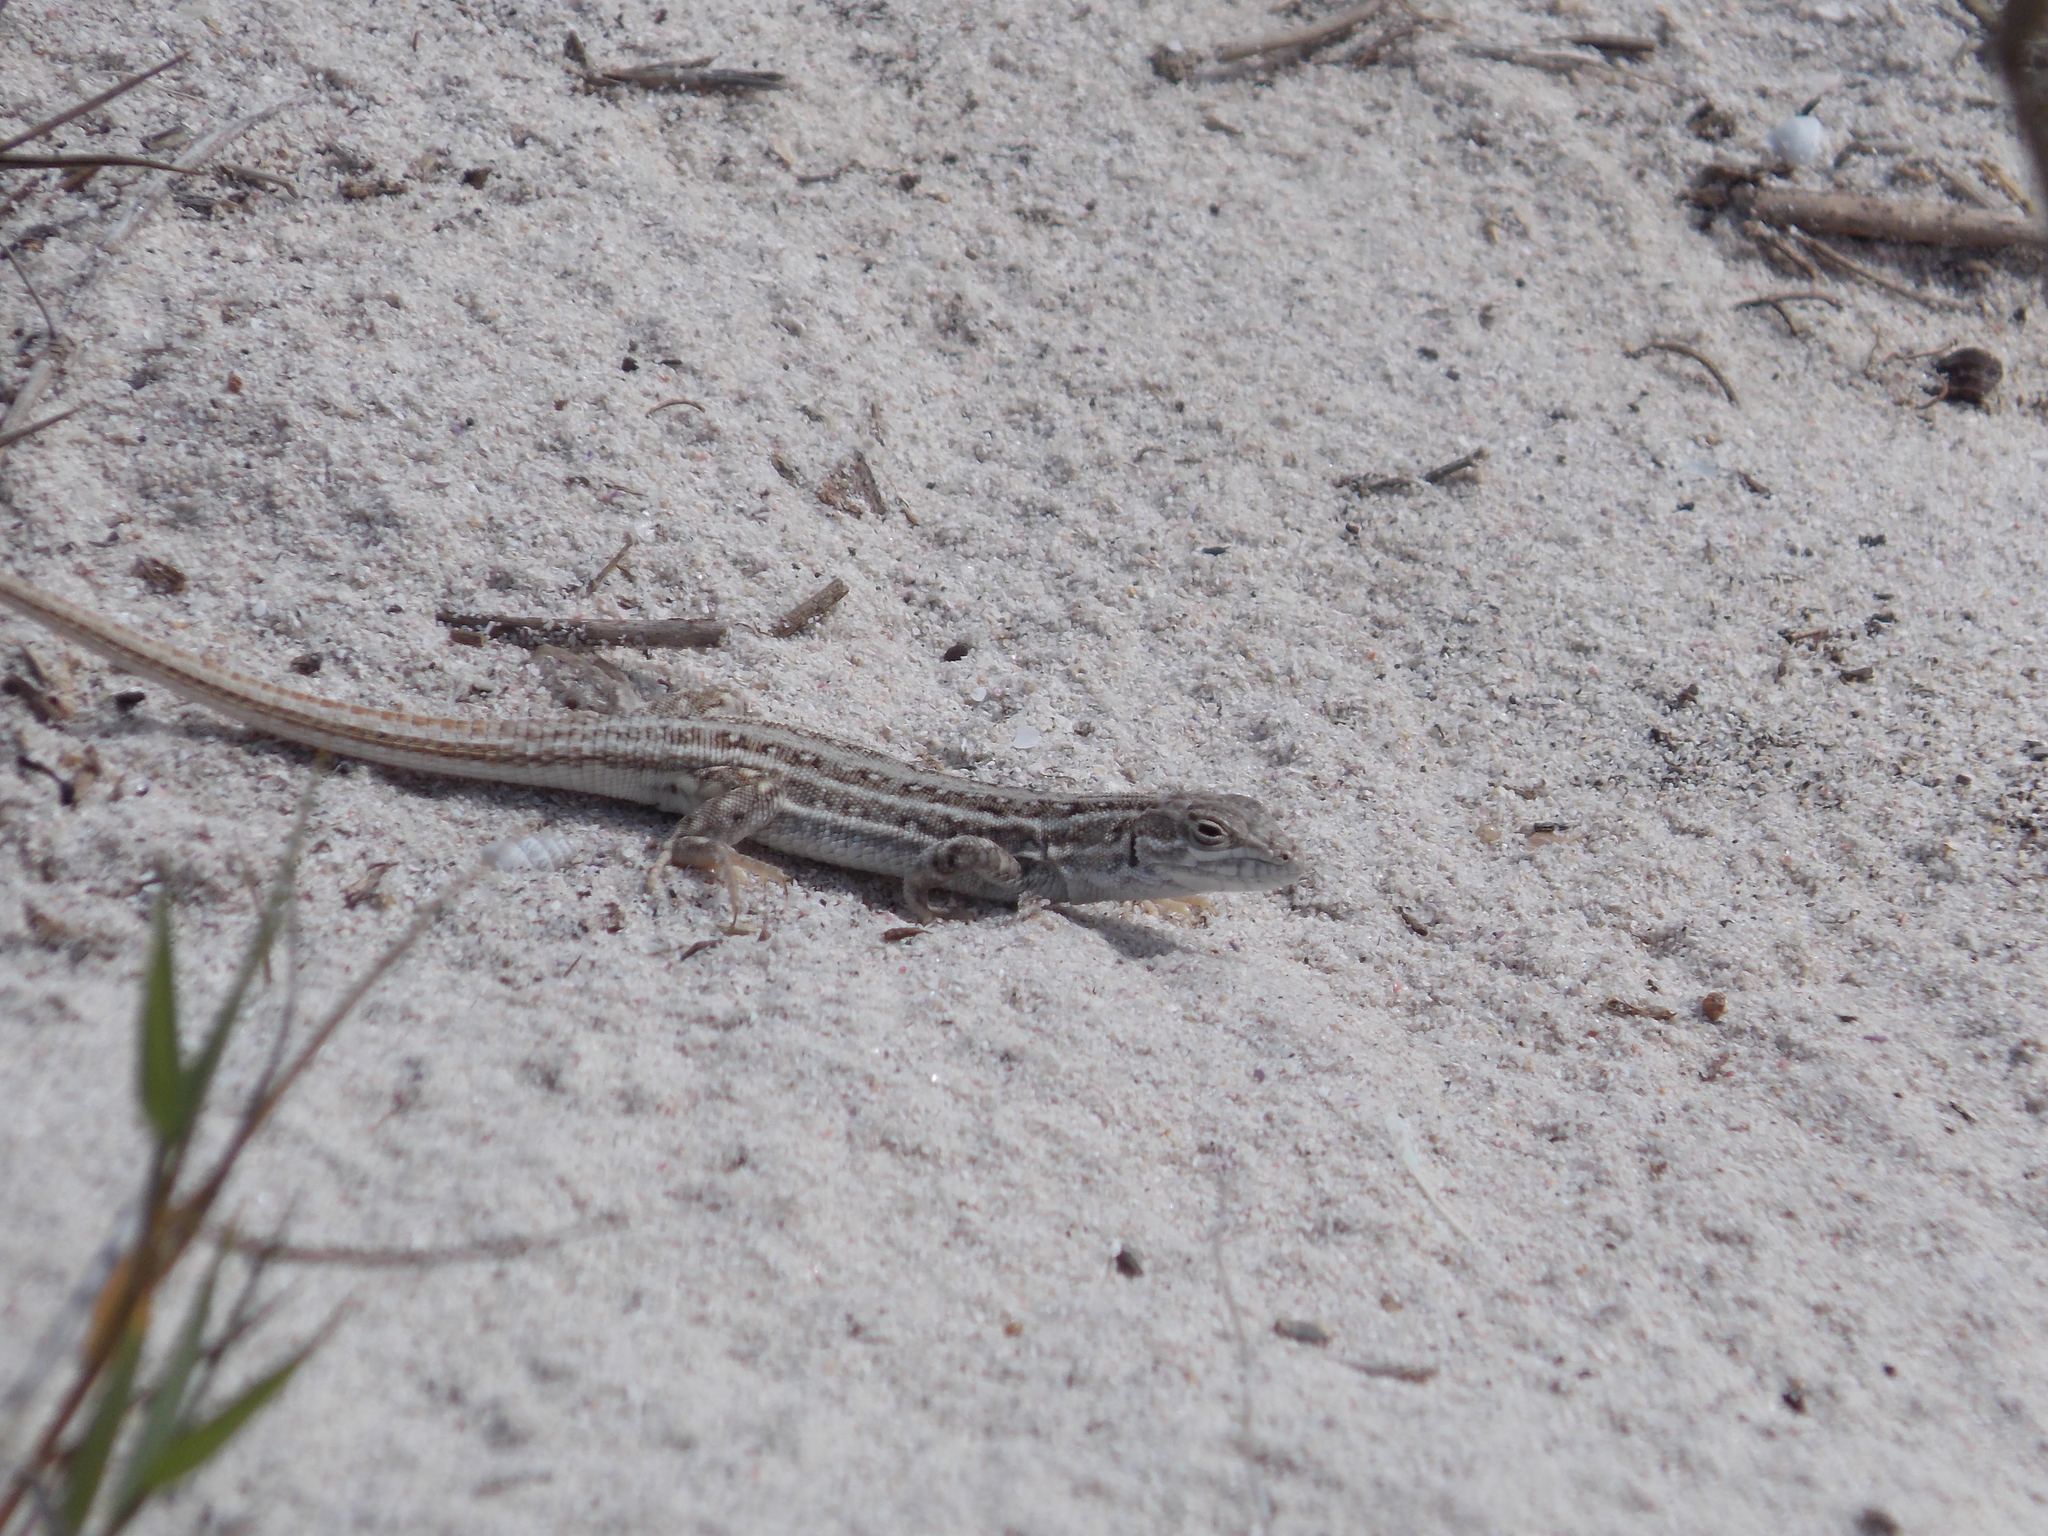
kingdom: Animalia
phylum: Chordata
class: Squamata
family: Lacertidae
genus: Meroles
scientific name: Meroles knoxii
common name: Knox's desert lizard
